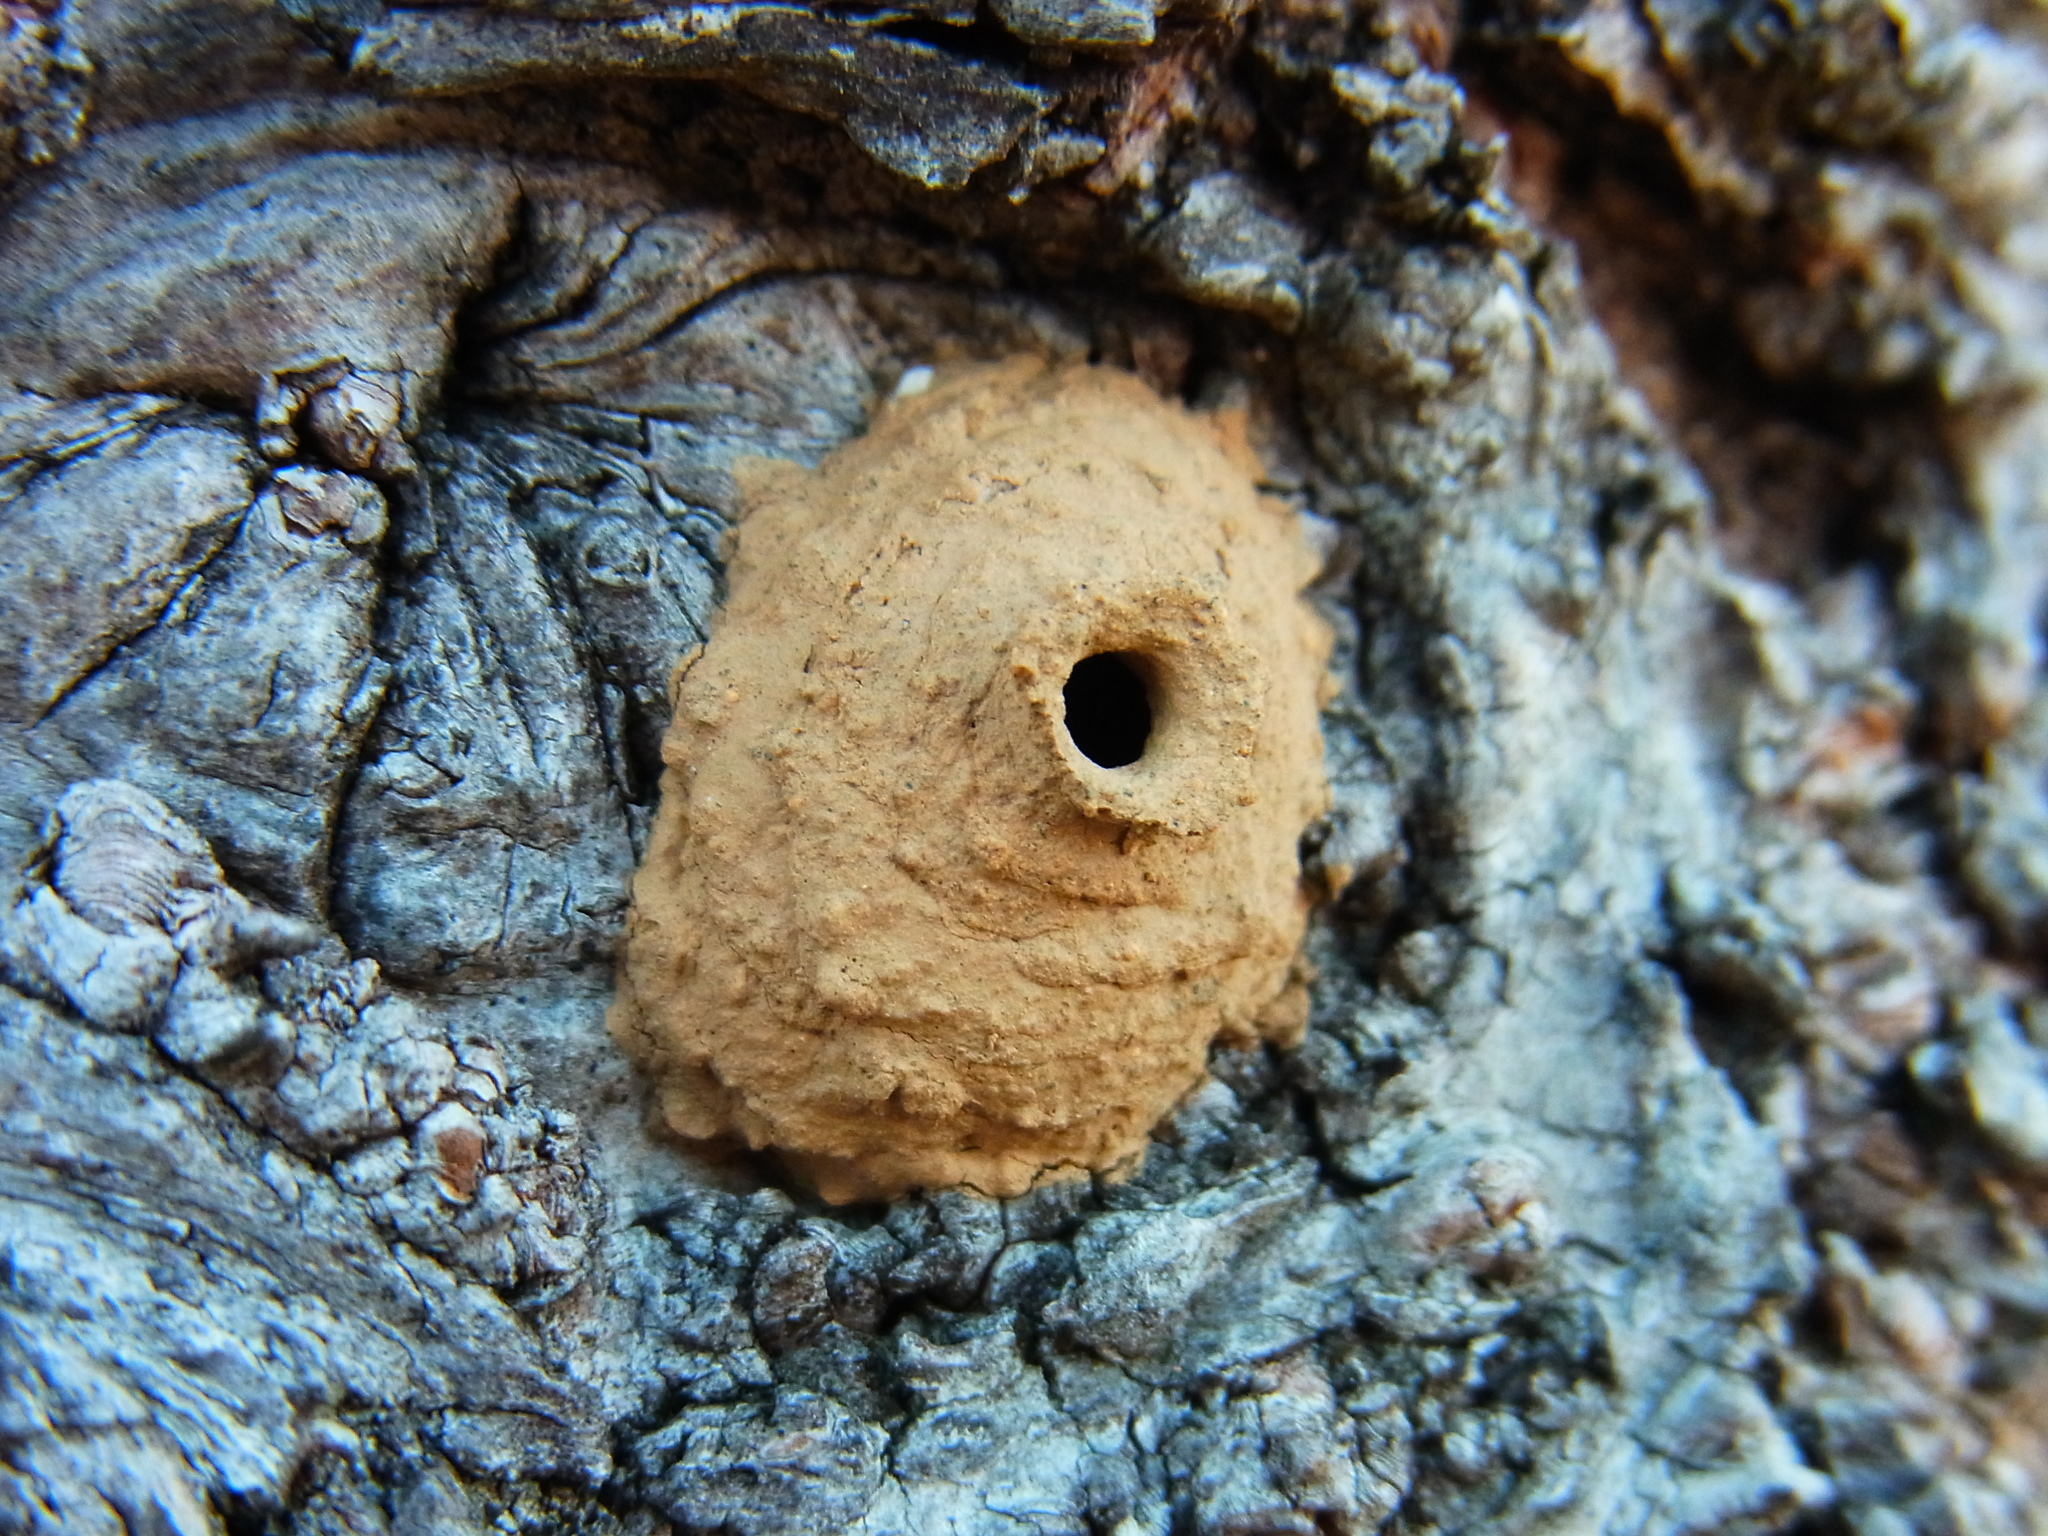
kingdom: Animalia
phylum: Arthropoda
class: Insecta
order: Hymenoptera
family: Eumenidae
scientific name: Eumenidae
